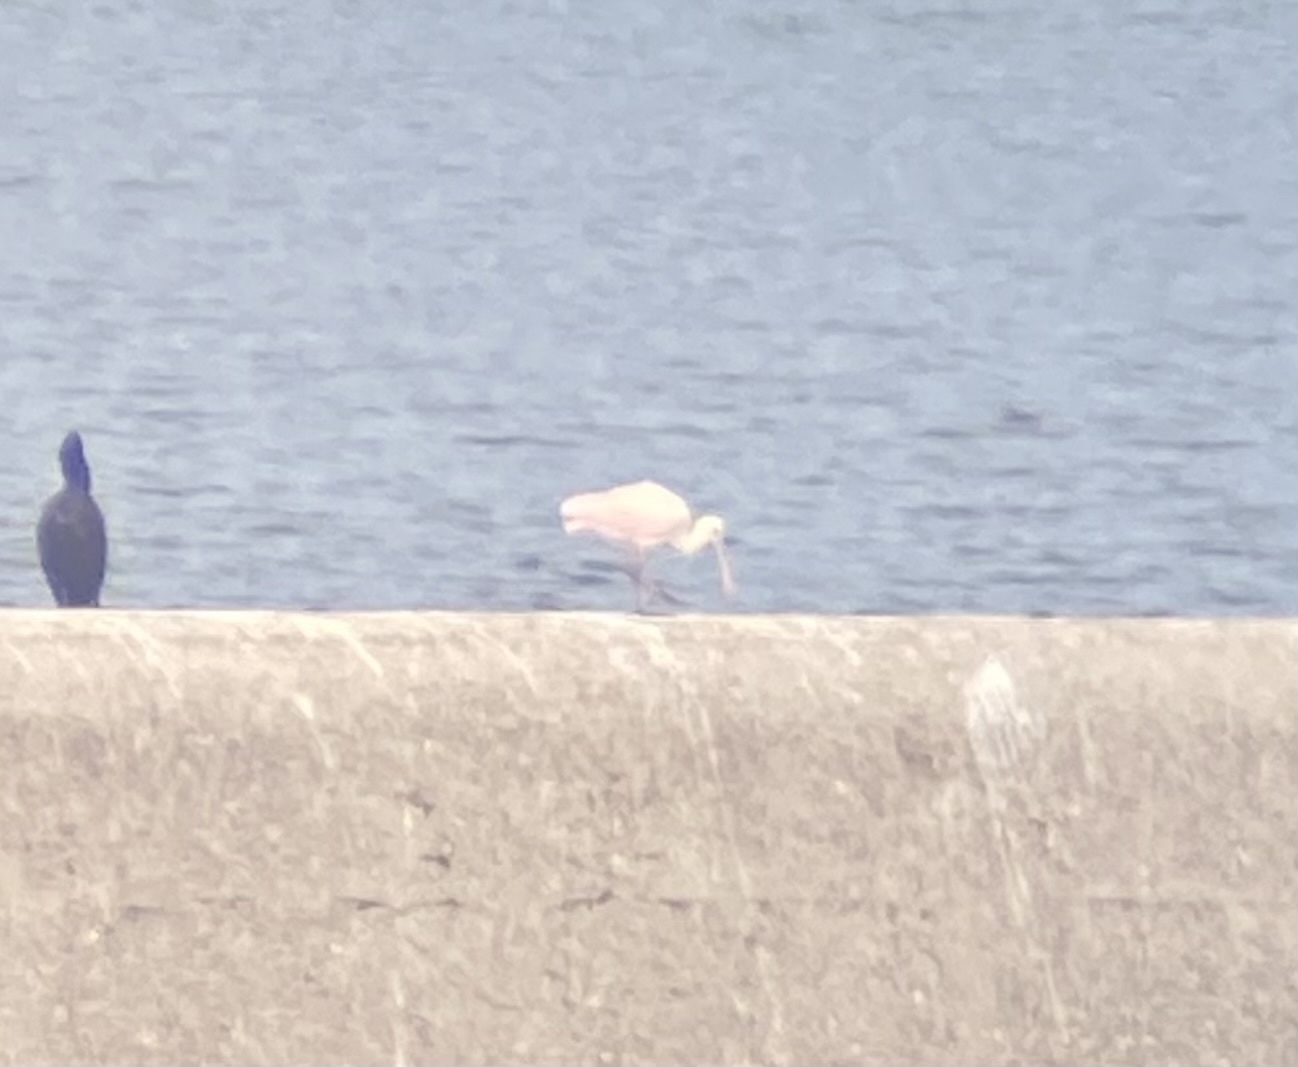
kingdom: Animalia
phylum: Chordata
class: Aves
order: Pelecaniformes
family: Threskiornithidae
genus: Platalea
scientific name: Platalea ajaja
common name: Roseate spoonbill
